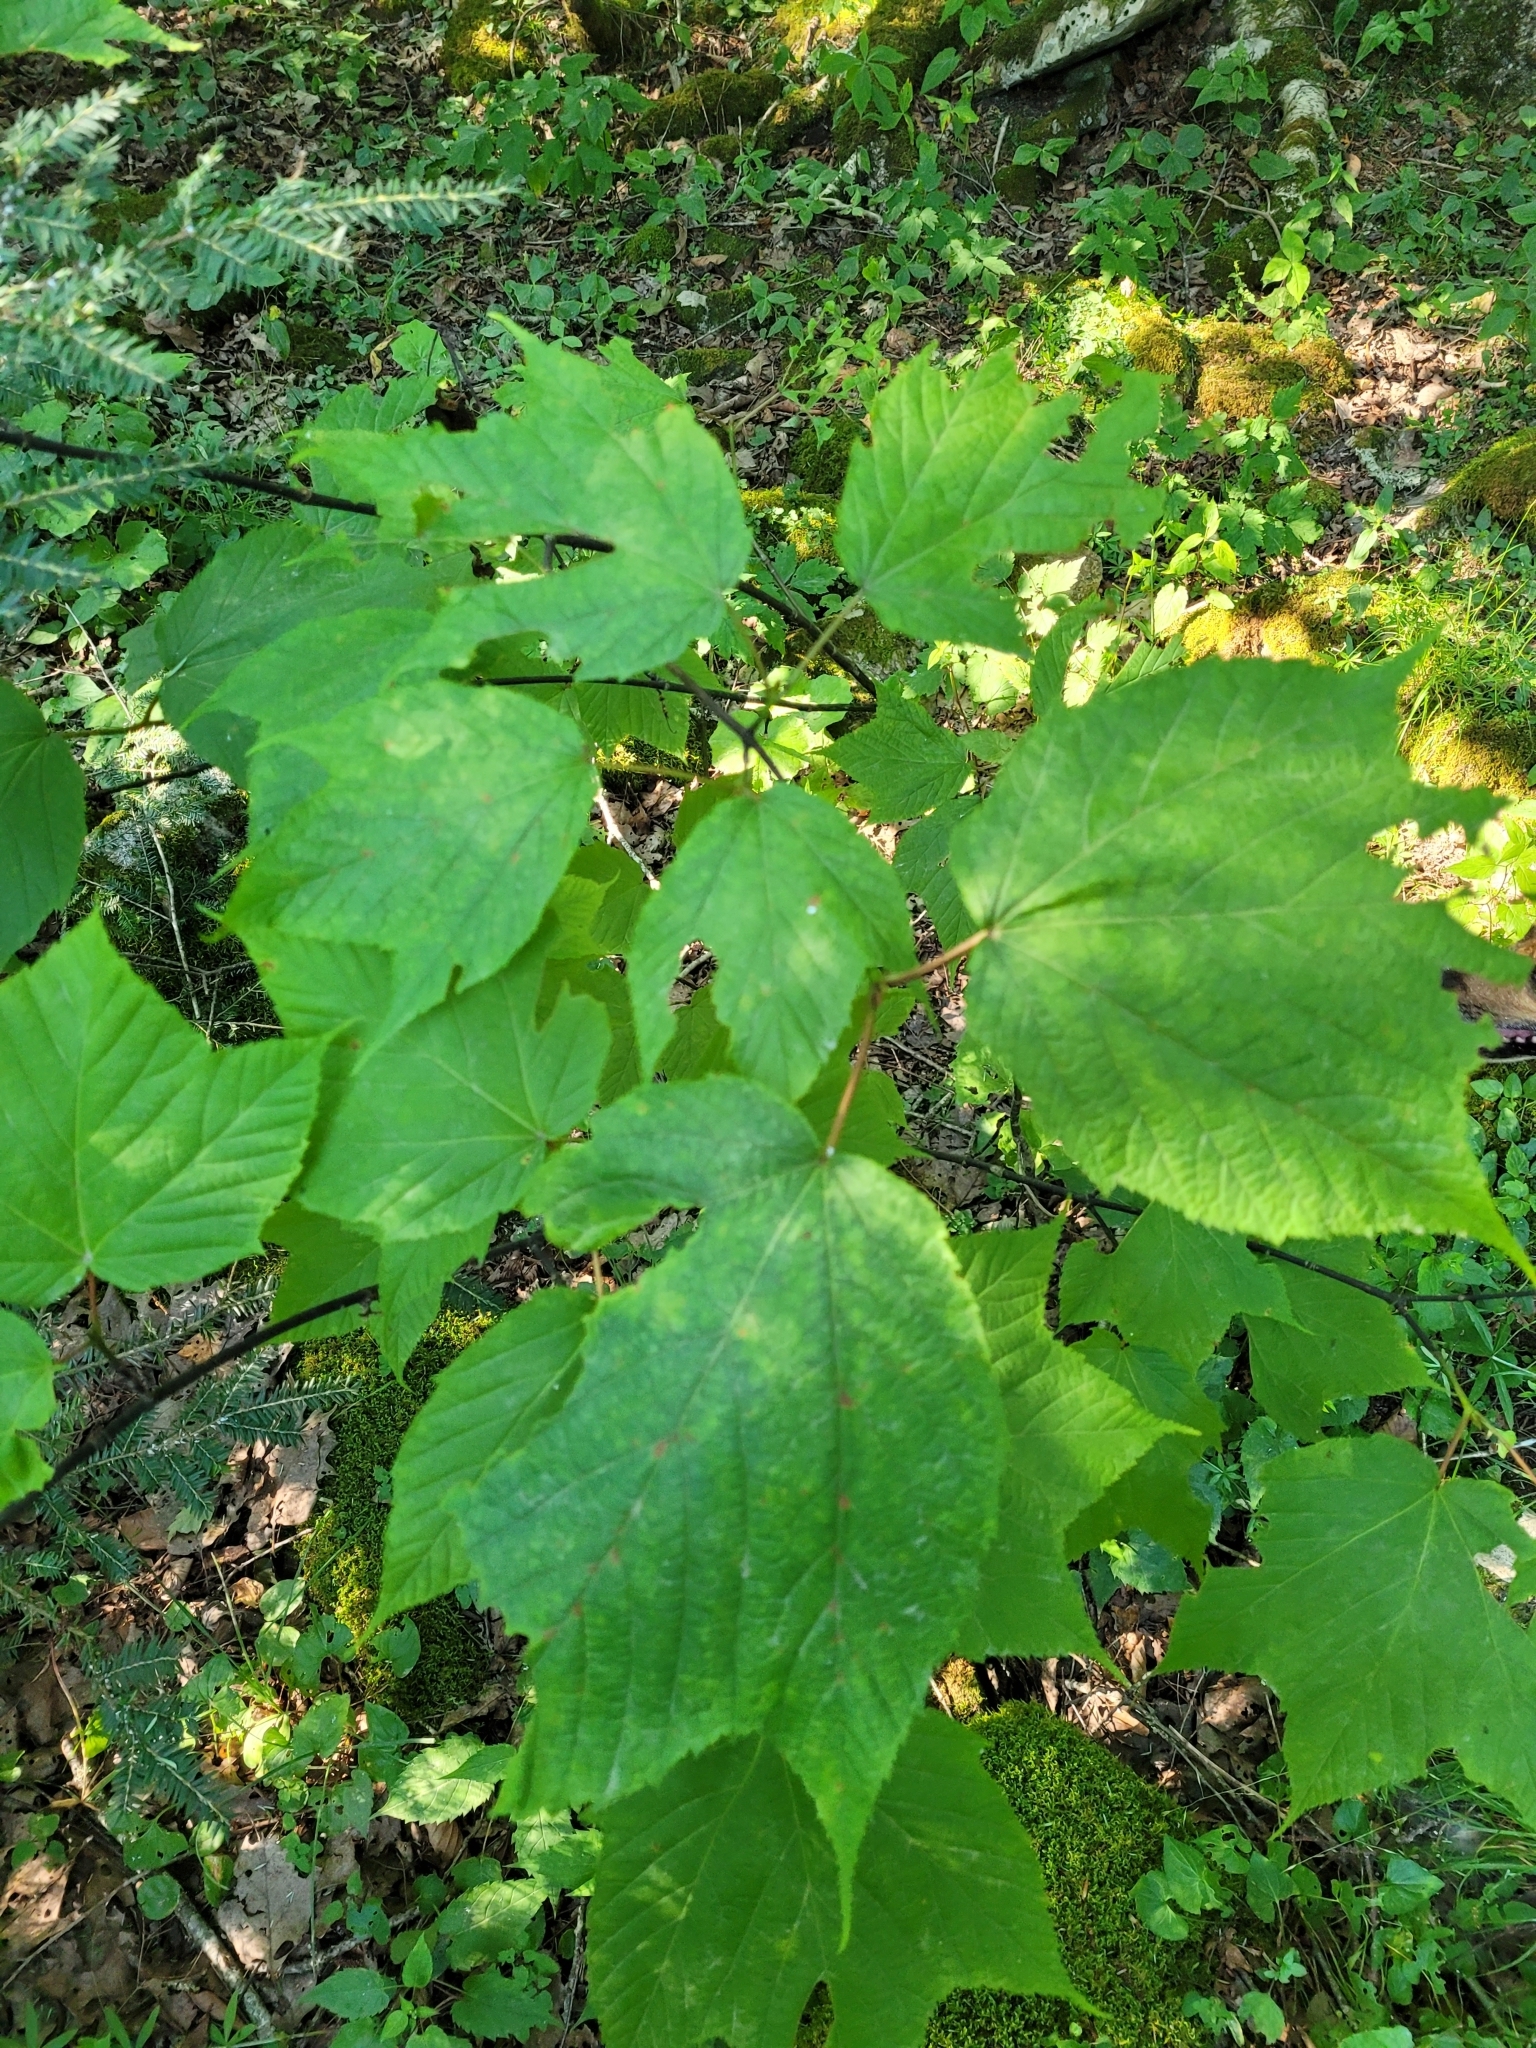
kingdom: Plantae
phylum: Tracheophyta
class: Magnoliopsida
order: Sapindales
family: Sapindaceae
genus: Acer
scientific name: Acer pensylvanicum
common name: Moosewood
